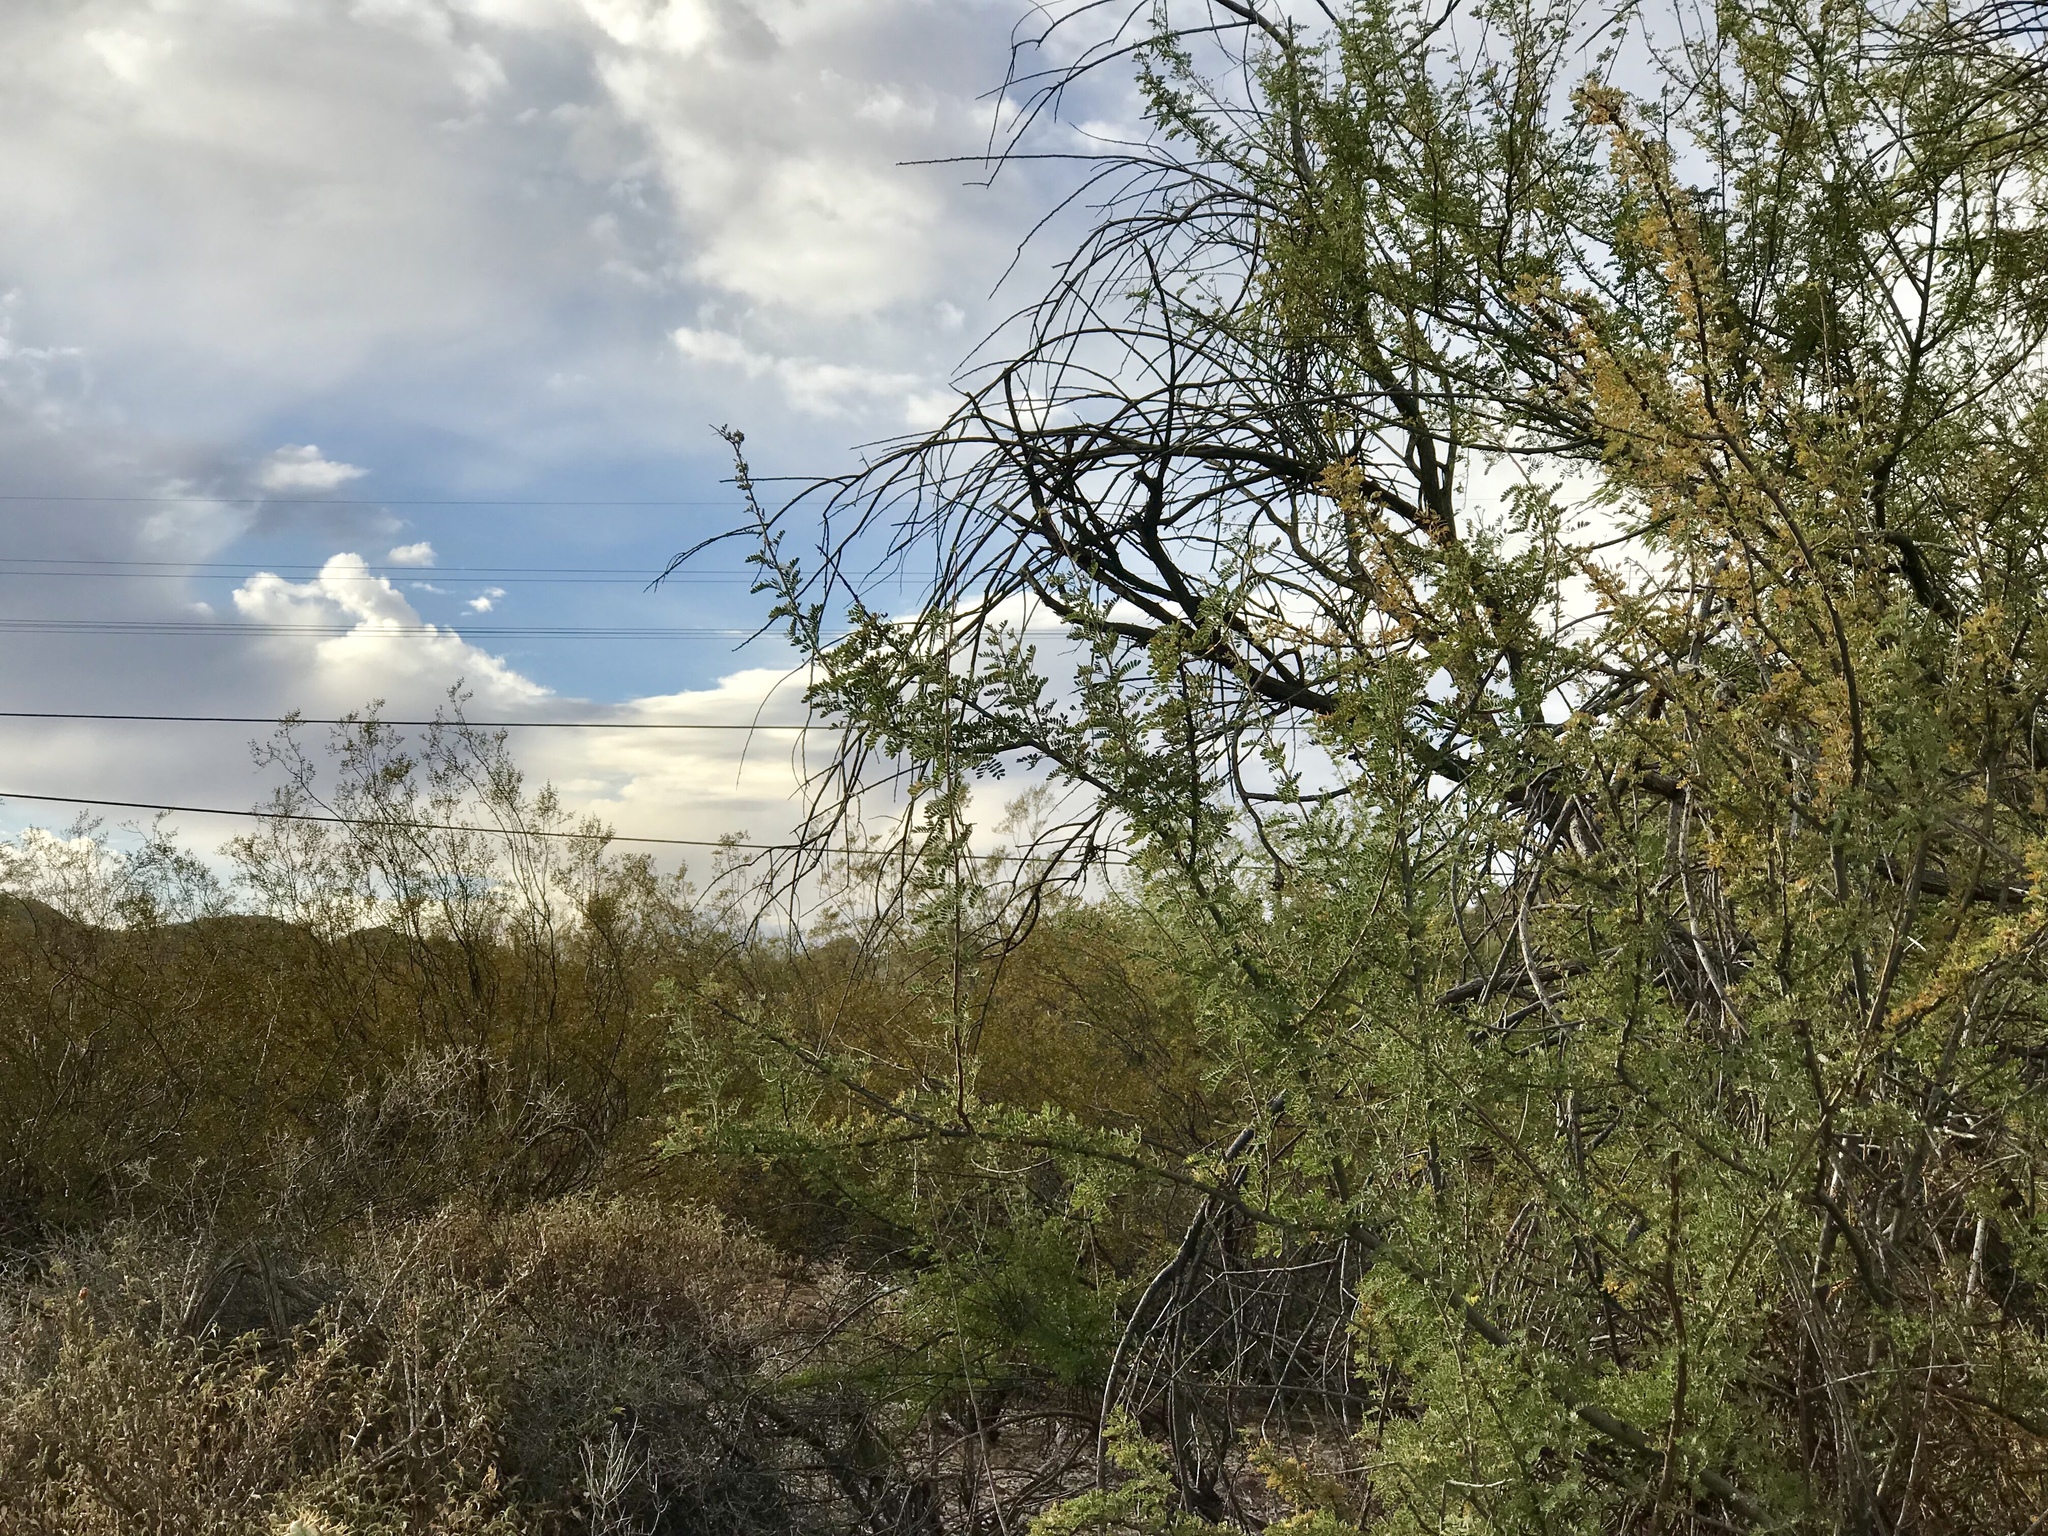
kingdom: Plantae
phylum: Tracheophyta
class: Magnoliopsida
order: Fabales
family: Fabaceae
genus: Senegalia
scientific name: Senegalia greggii
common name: Texas-mimosa
